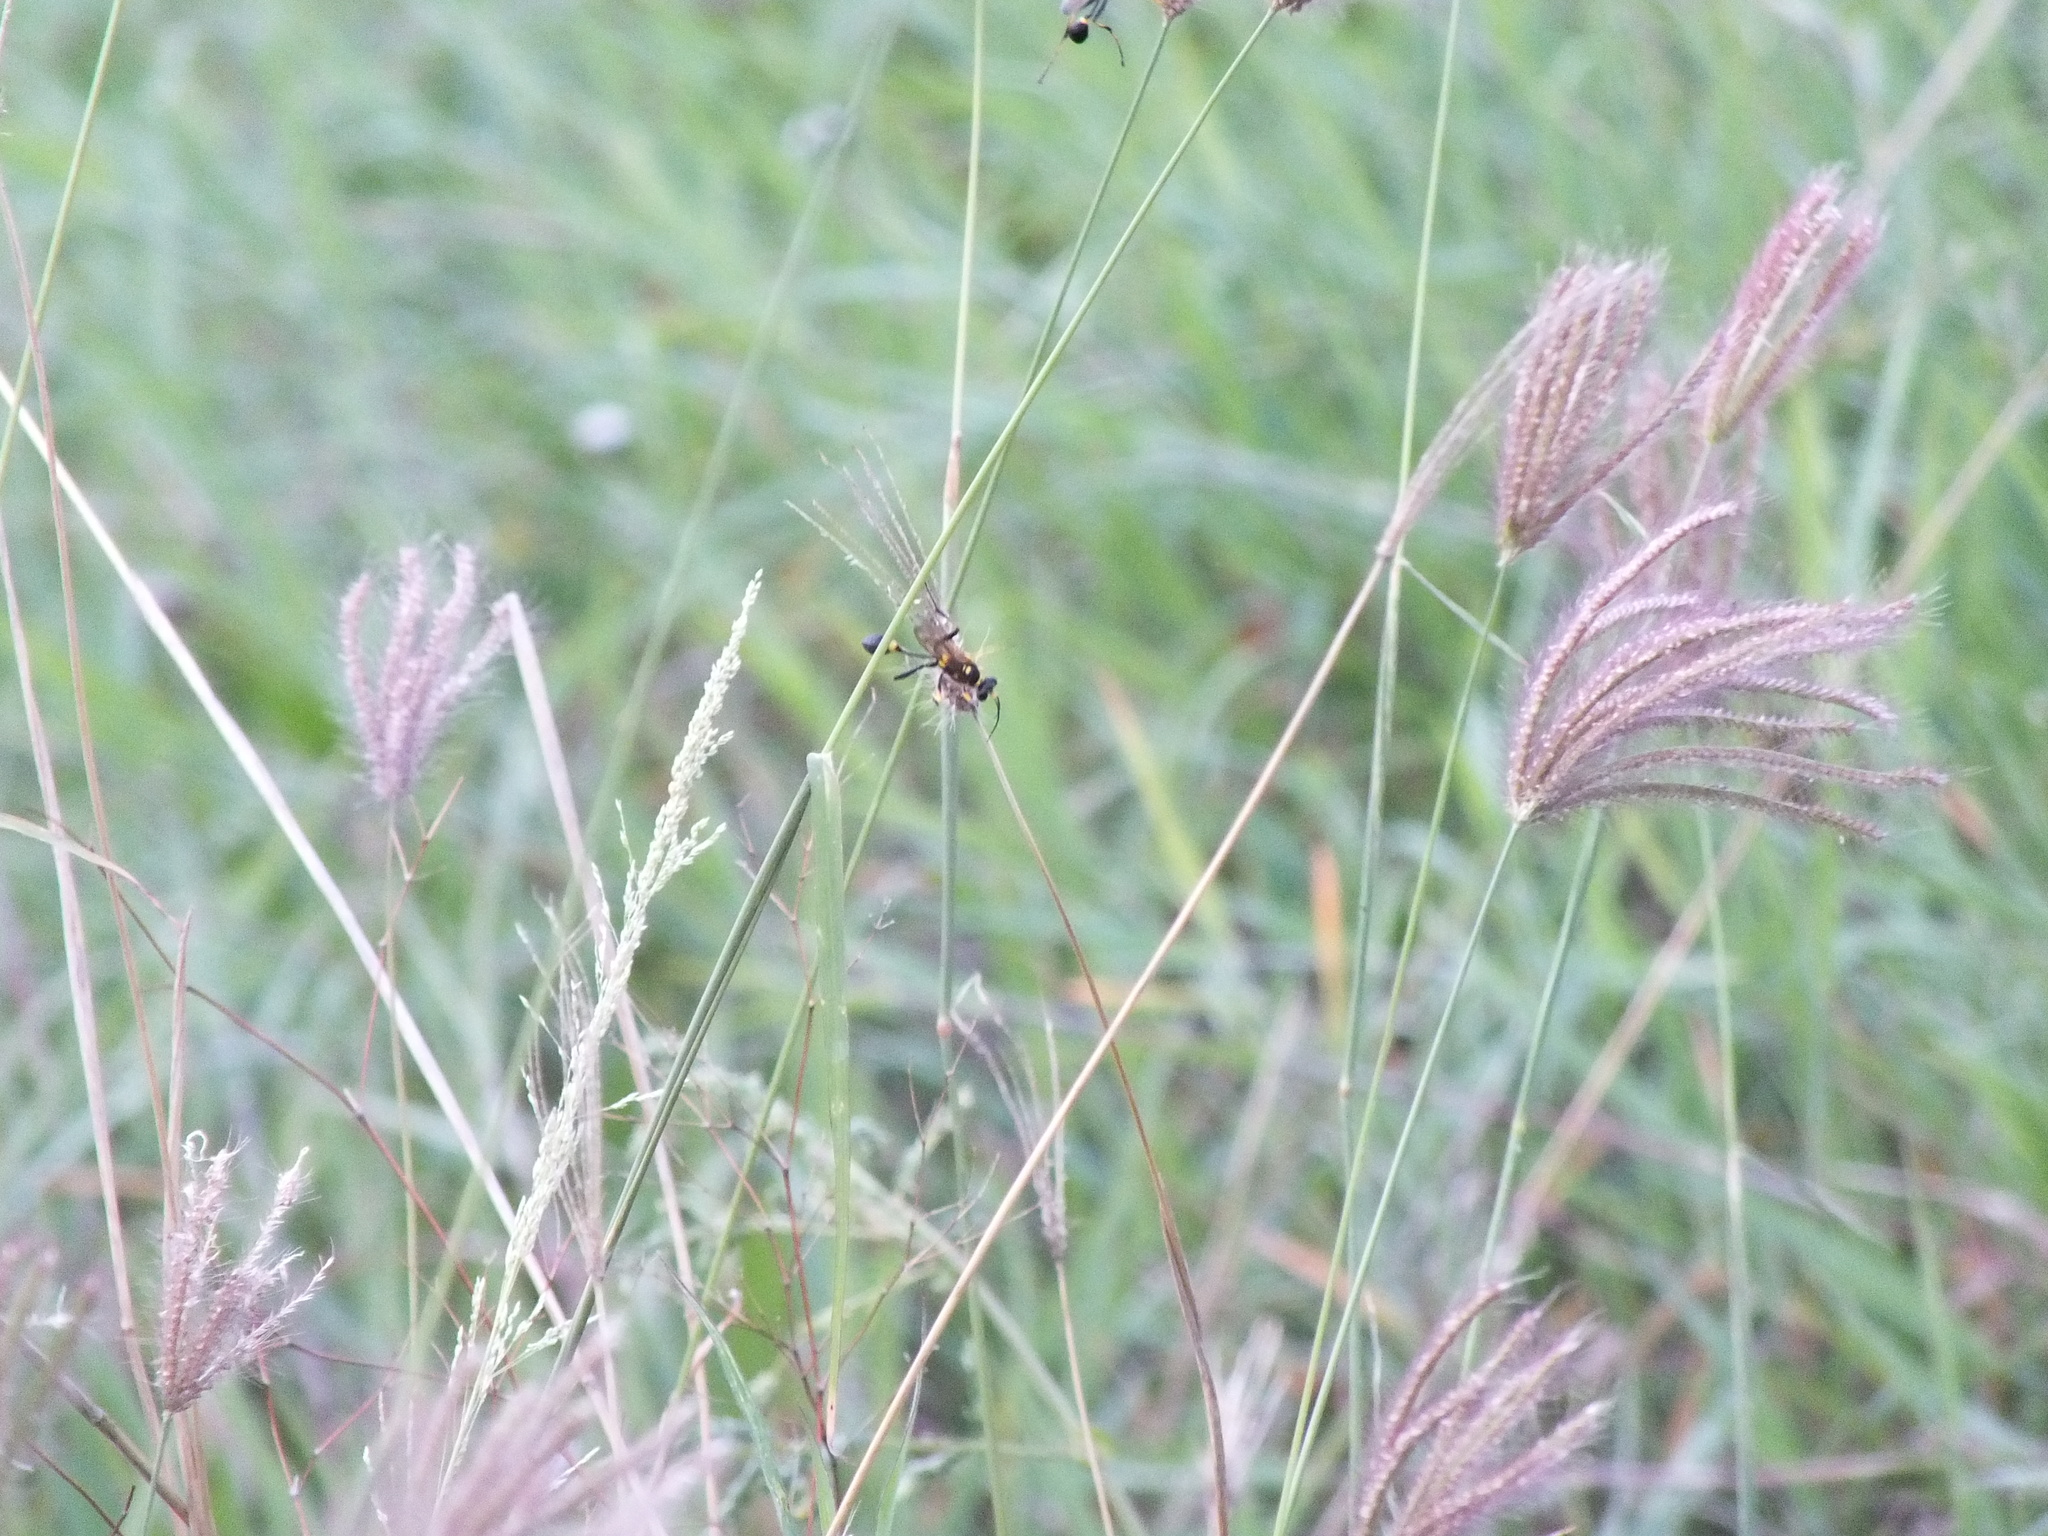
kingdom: Animalia
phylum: Arthropoda
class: Insecta
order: Hymenoptera
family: Sphecidae
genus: Sceliphron
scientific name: Sceliphron assimile
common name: Clayman's mud dauber
